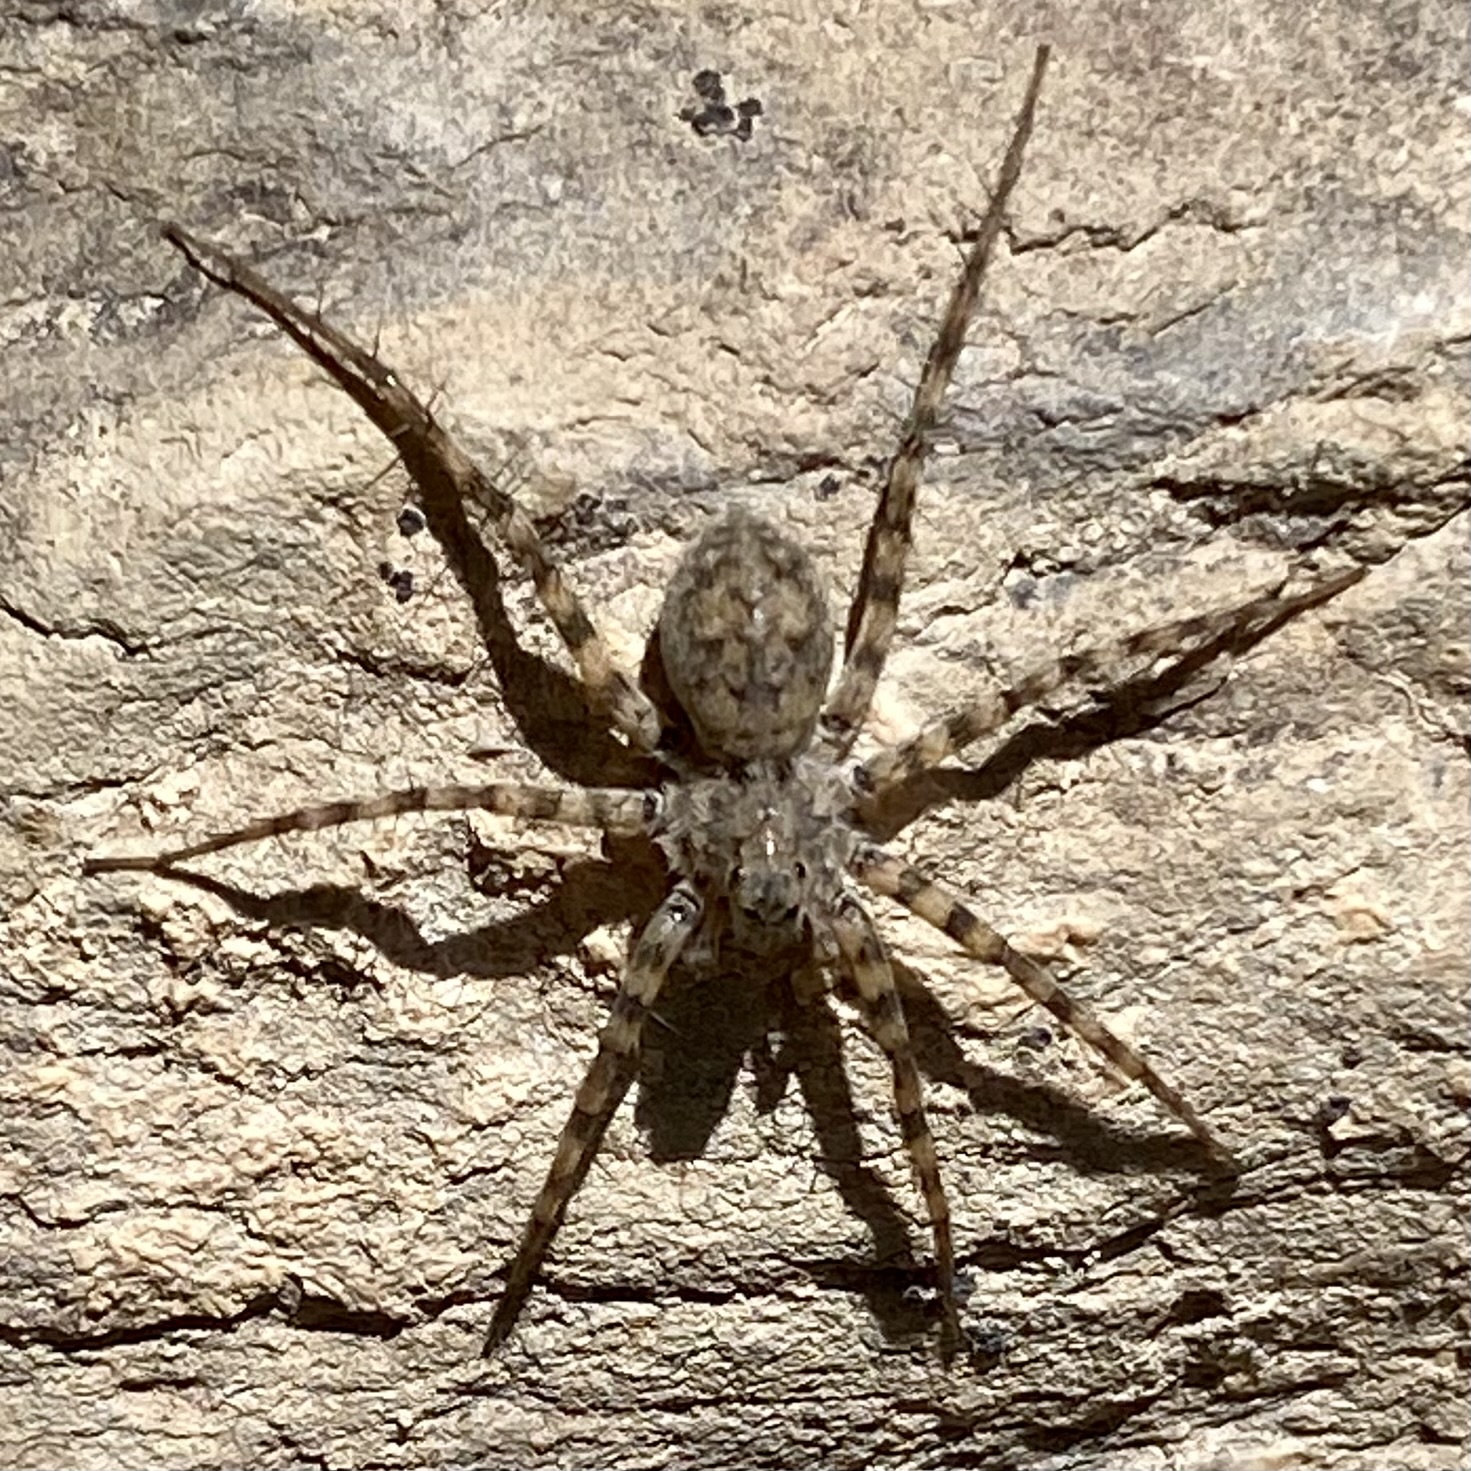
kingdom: Animalia
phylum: Arthropoda
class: Arachnida
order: Araneae
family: Lycosidae
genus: Pardosa
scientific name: Pardosa
